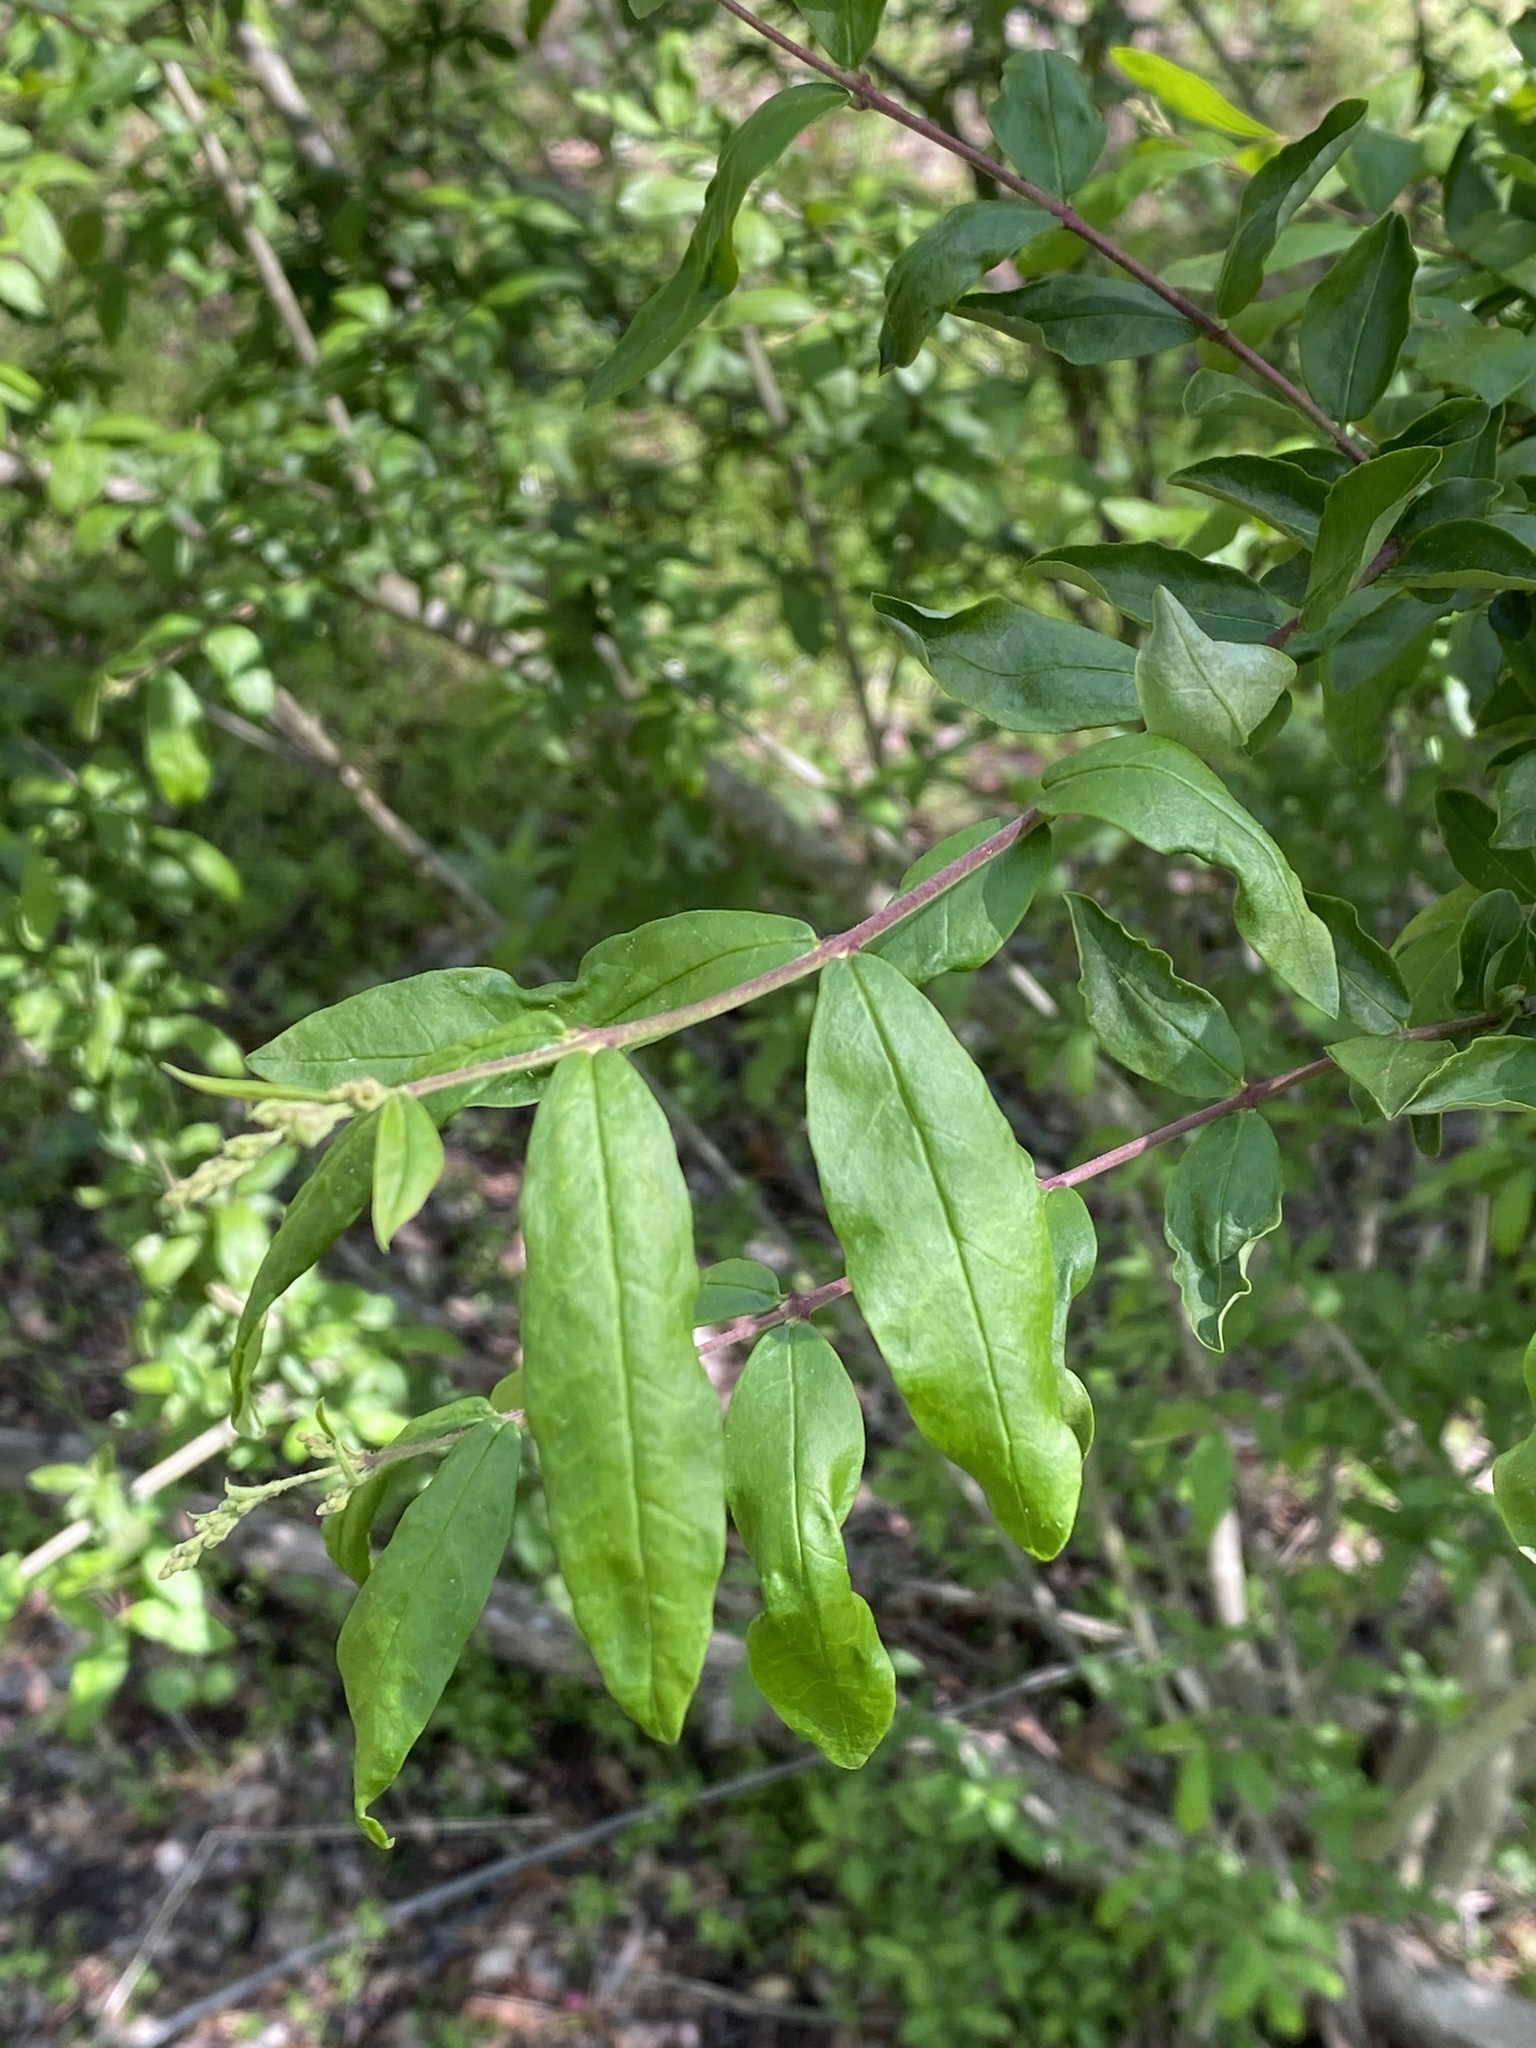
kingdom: Plantae
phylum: Tracheophyta
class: Magnoliopsida
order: Lamiales
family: Oleaceae
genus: Ligustrum
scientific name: Ligustrum obtusifolium
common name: Border privet
